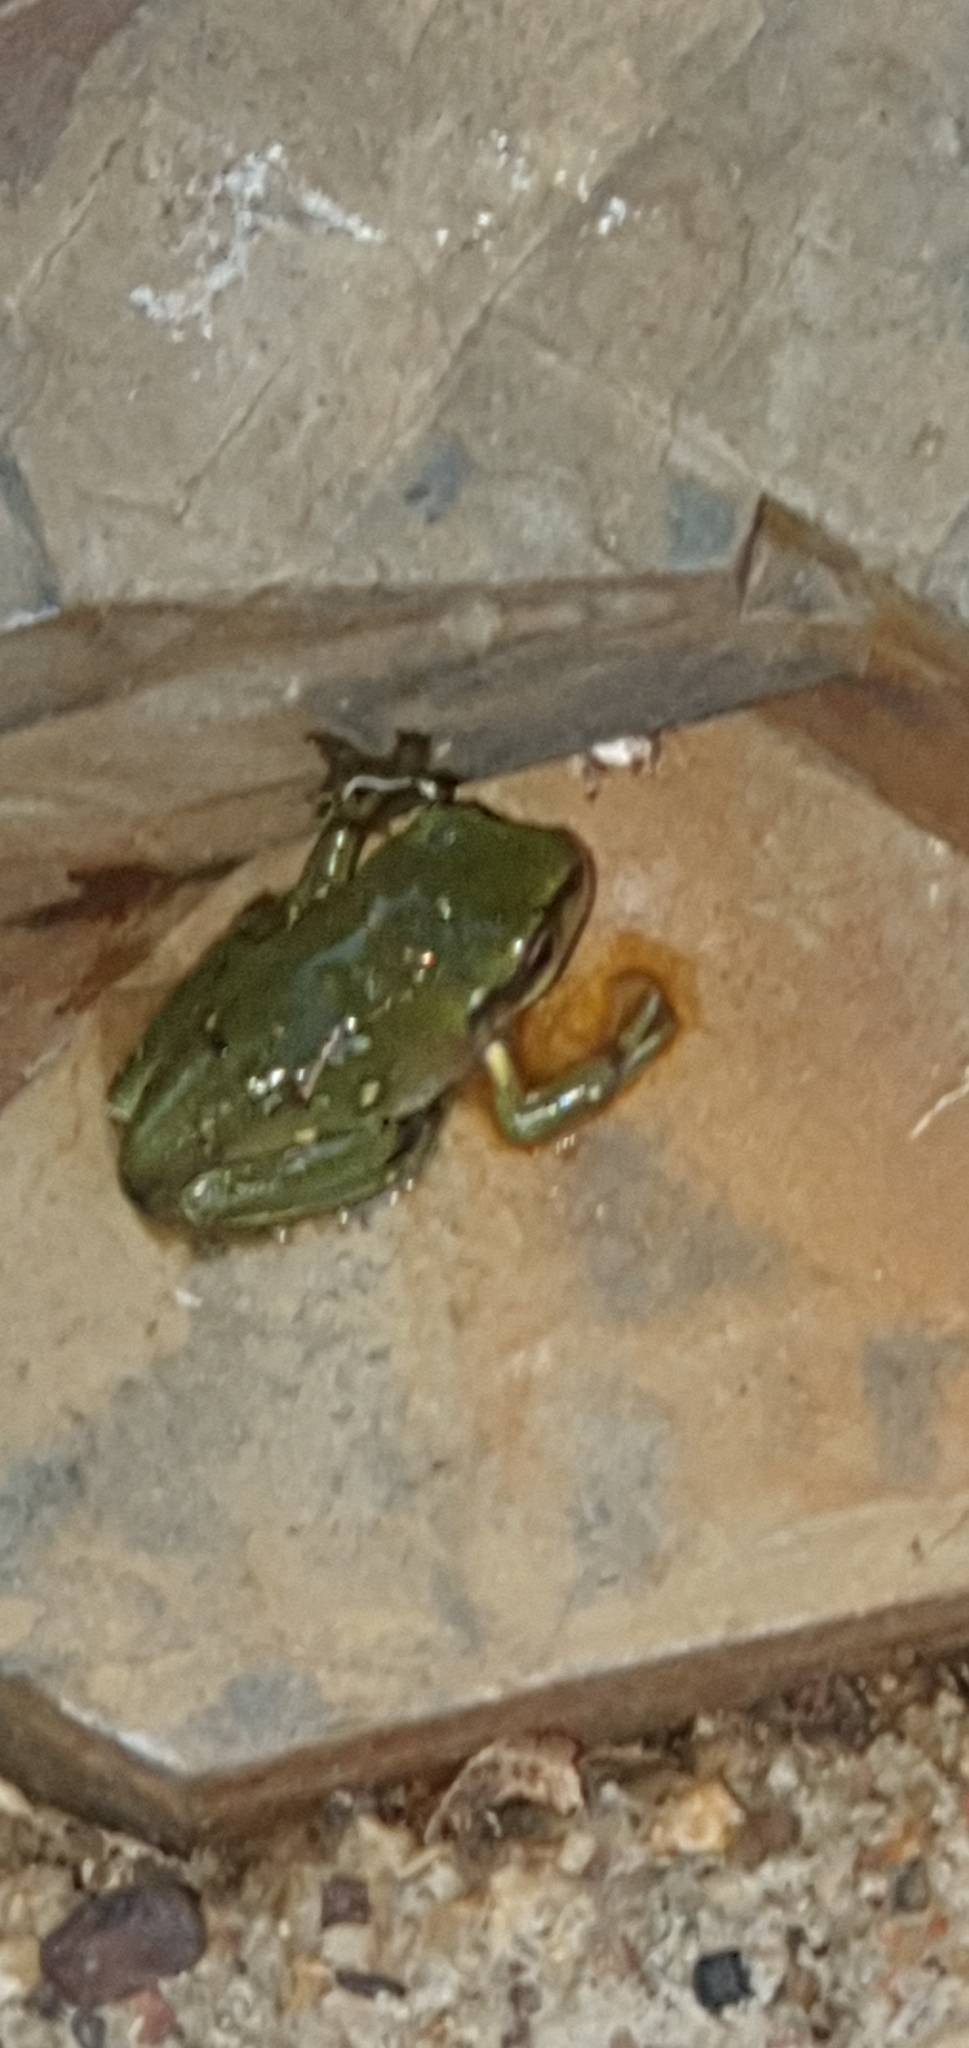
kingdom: Animalia
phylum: Chordata
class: Amphibia
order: Anura
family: Pelodryadidae
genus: Ranoidea
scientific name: Ranoidea caerulea
